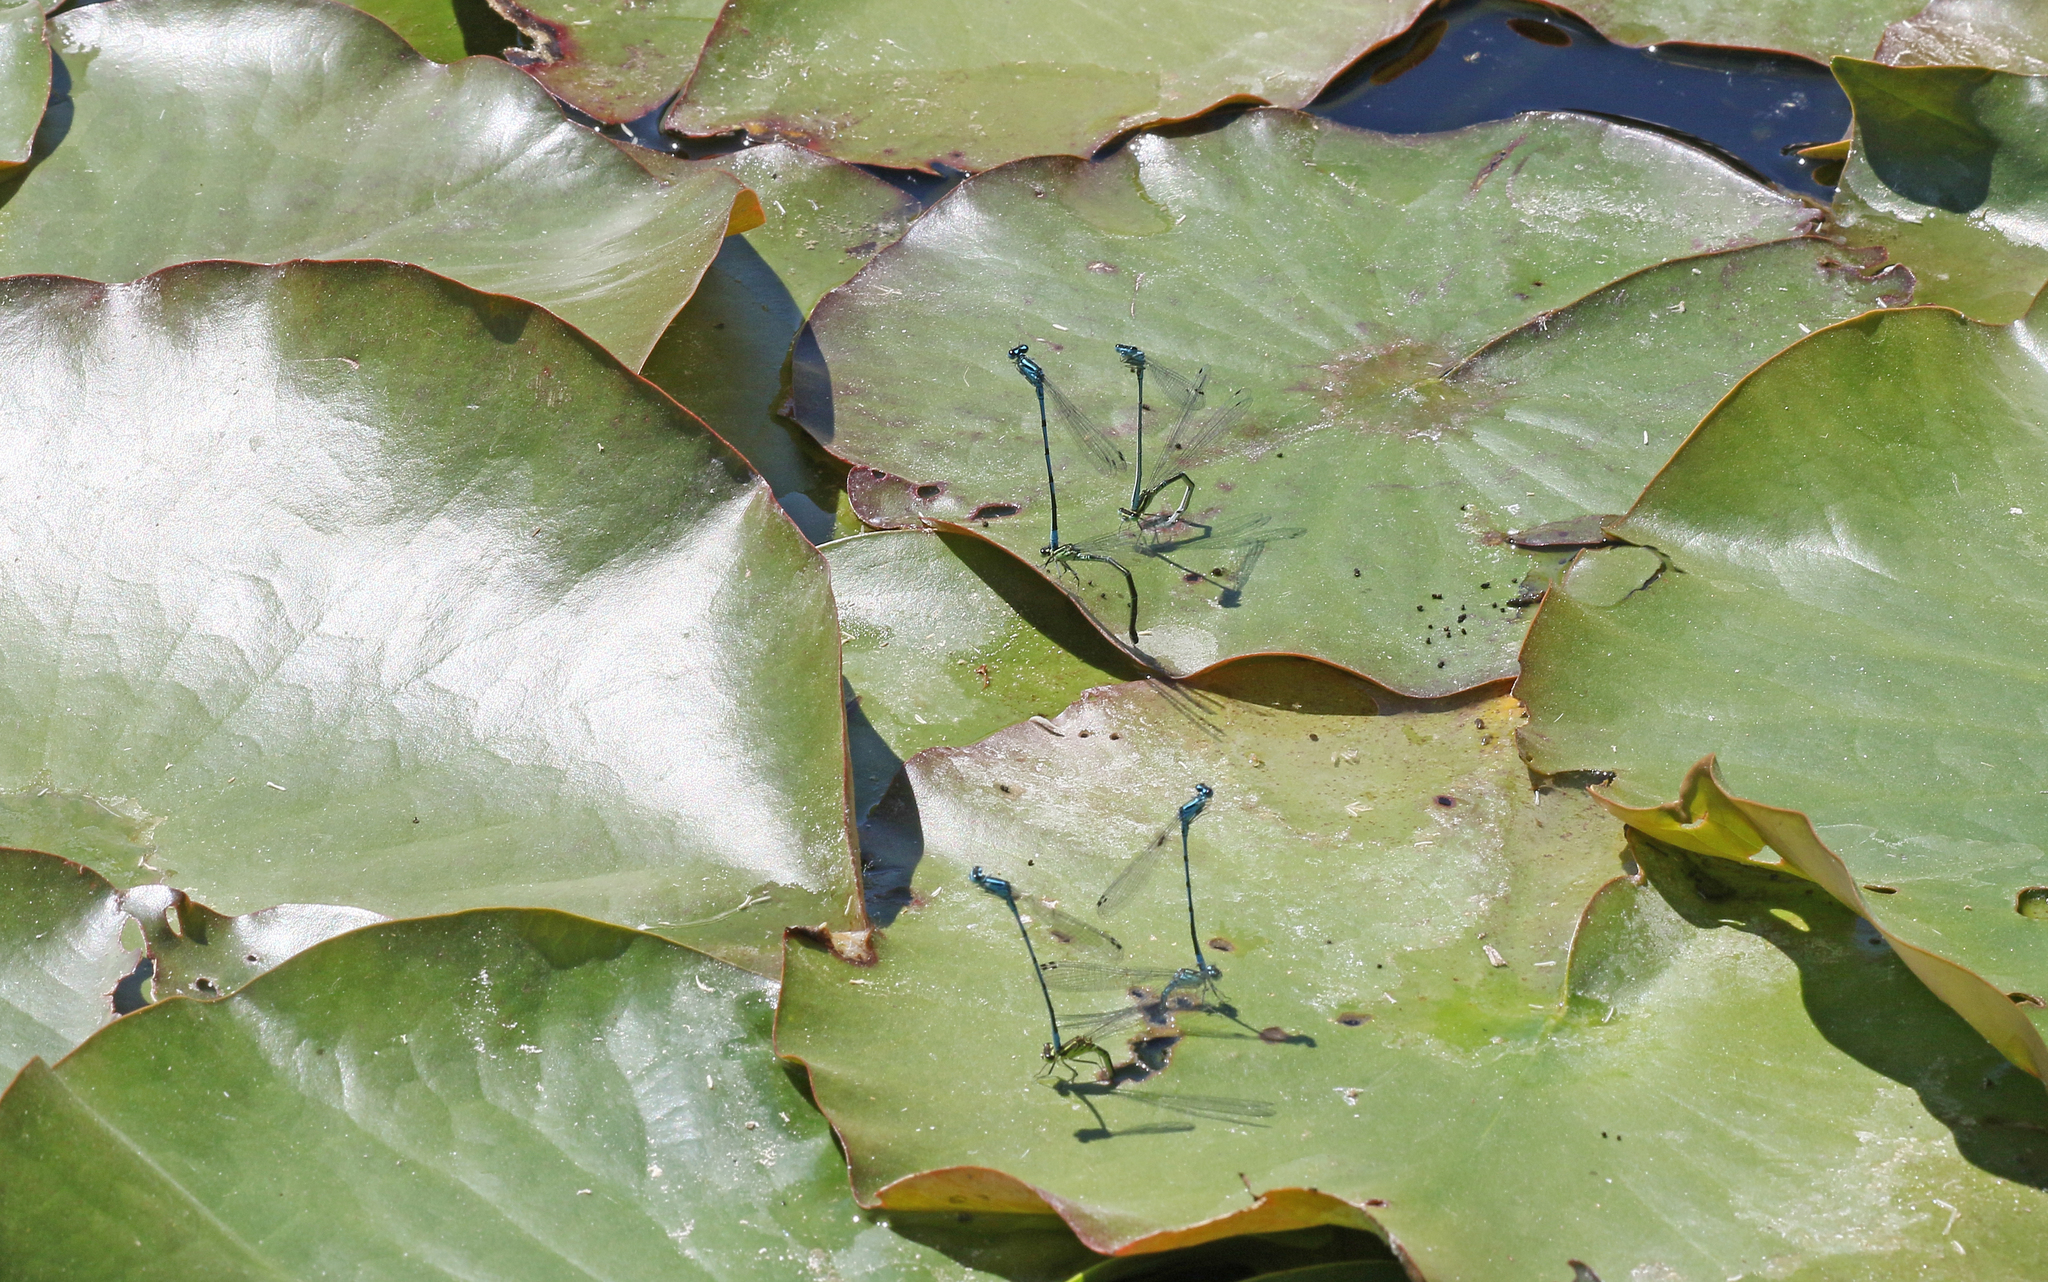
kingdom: Animalia
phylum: Arthropoda
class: Insecta
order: Odonata
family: Coenagrionidae
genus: Coenagrion
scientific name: Coenagrion puella
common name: Azure damselfly
